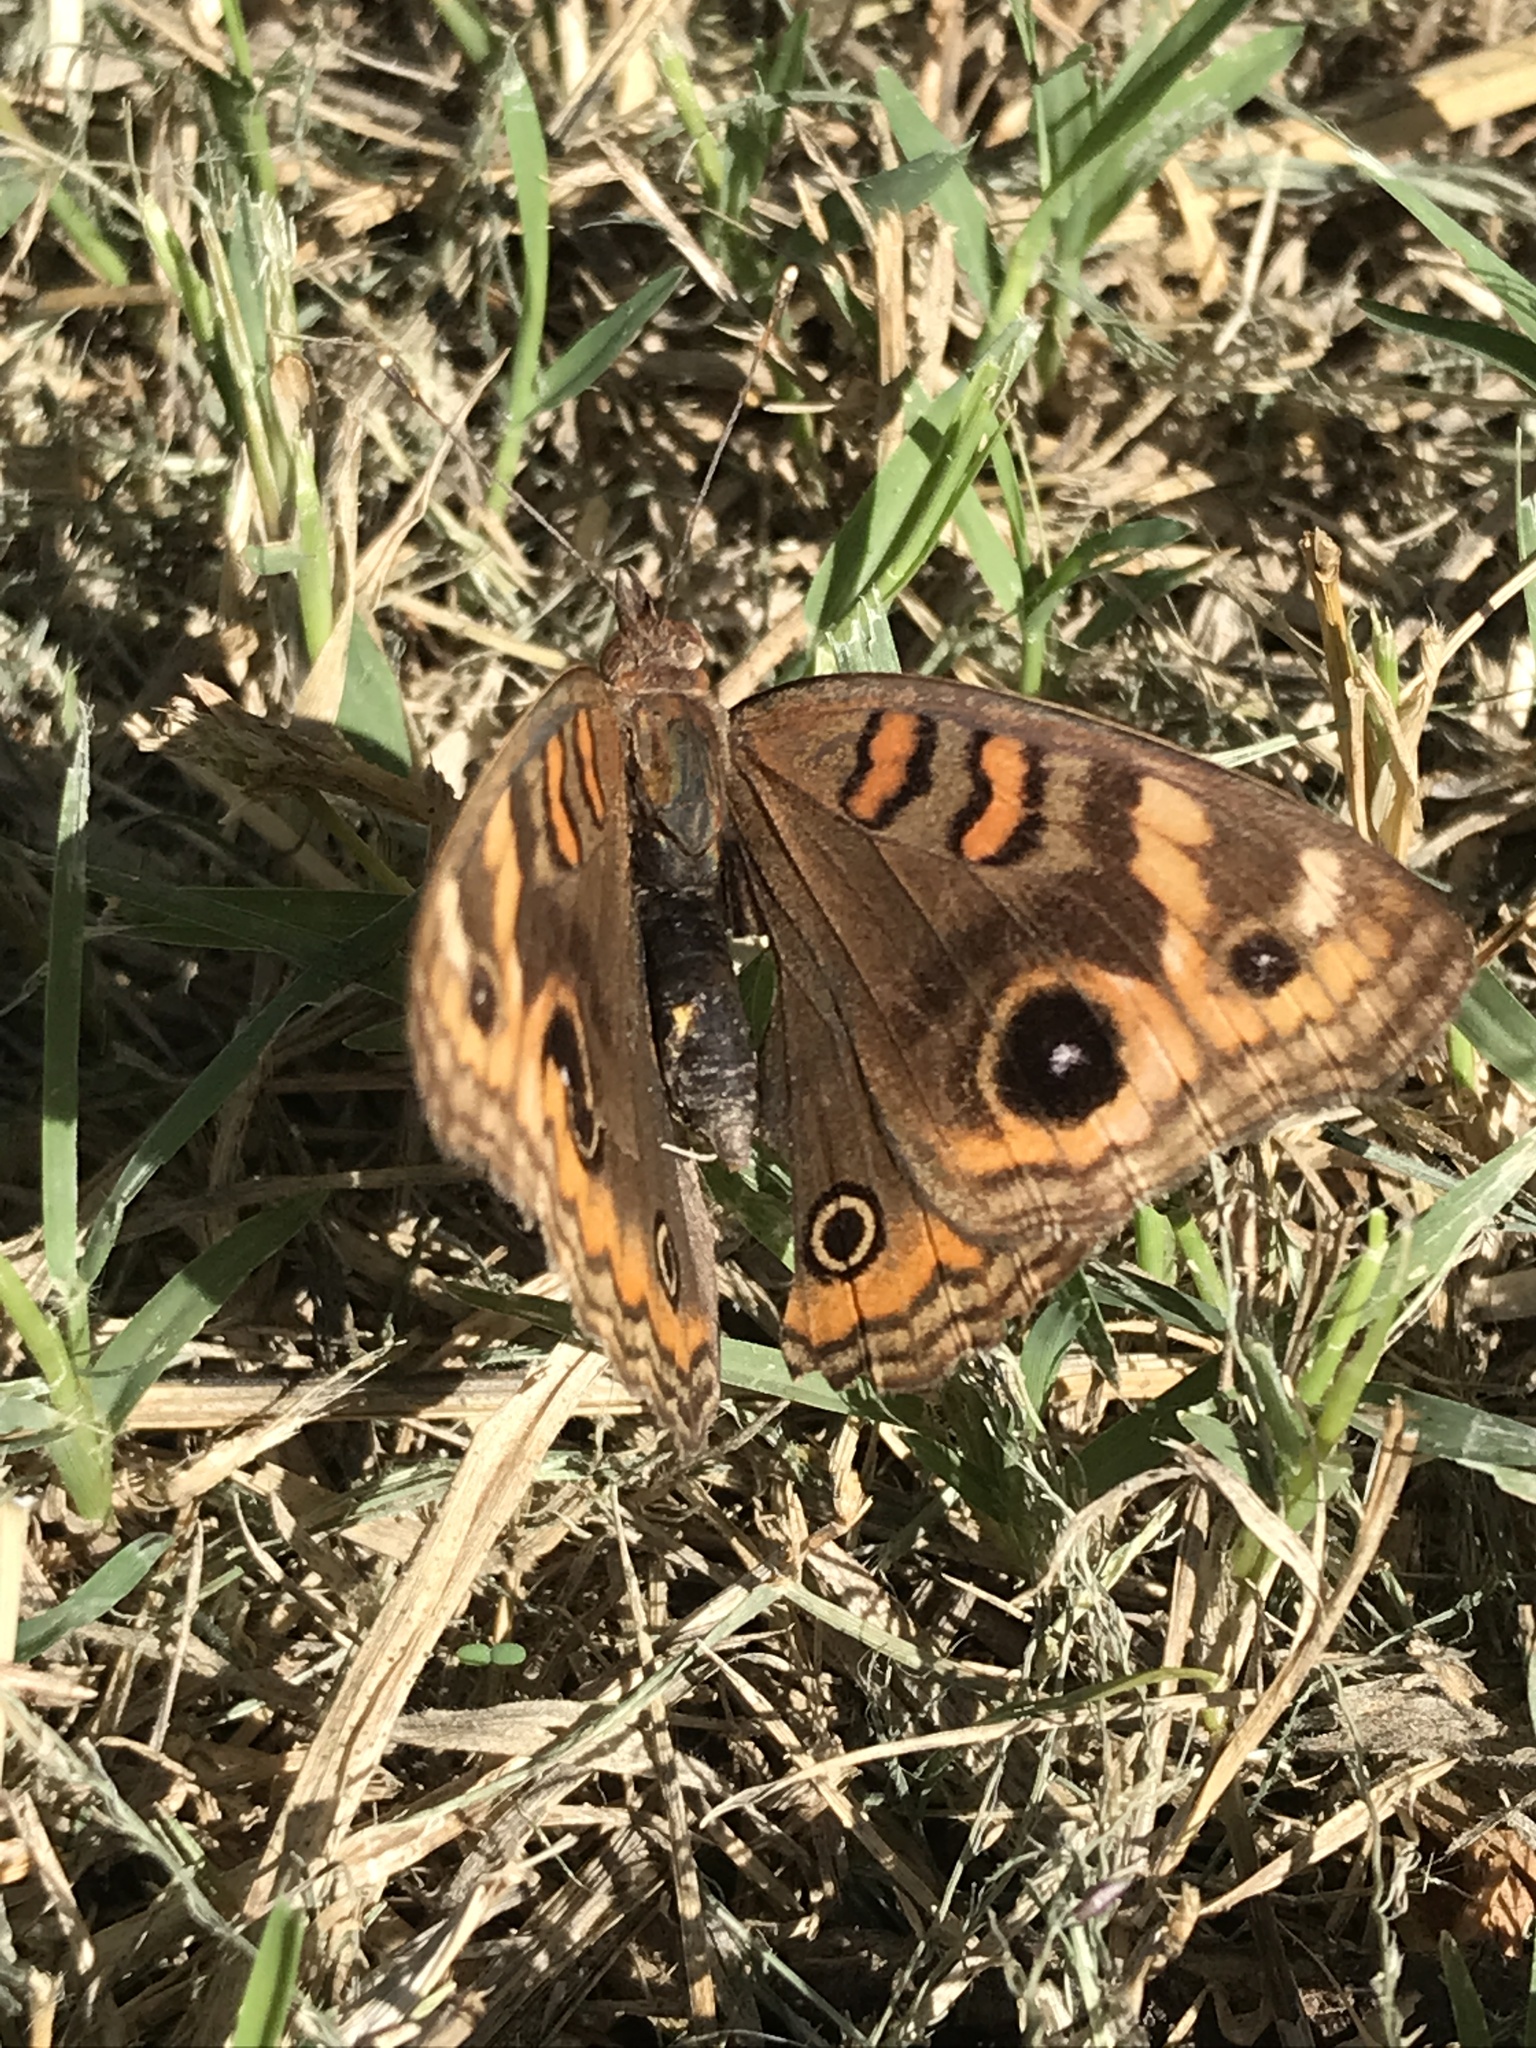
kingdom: Animalia
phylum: Arthropoda
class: Insecta
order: Lepidoptera
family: Nymphalidae
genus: Junonia
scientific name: Junonia lavinia
